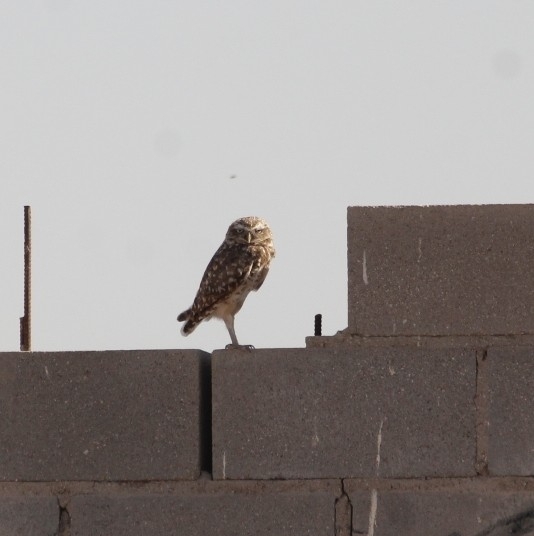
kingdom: Animalia
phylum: Chordata
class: Aves
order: Strigiformes
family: Strigidae
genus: Athene
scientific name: Athene cunicularia
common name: Burrowing owl
